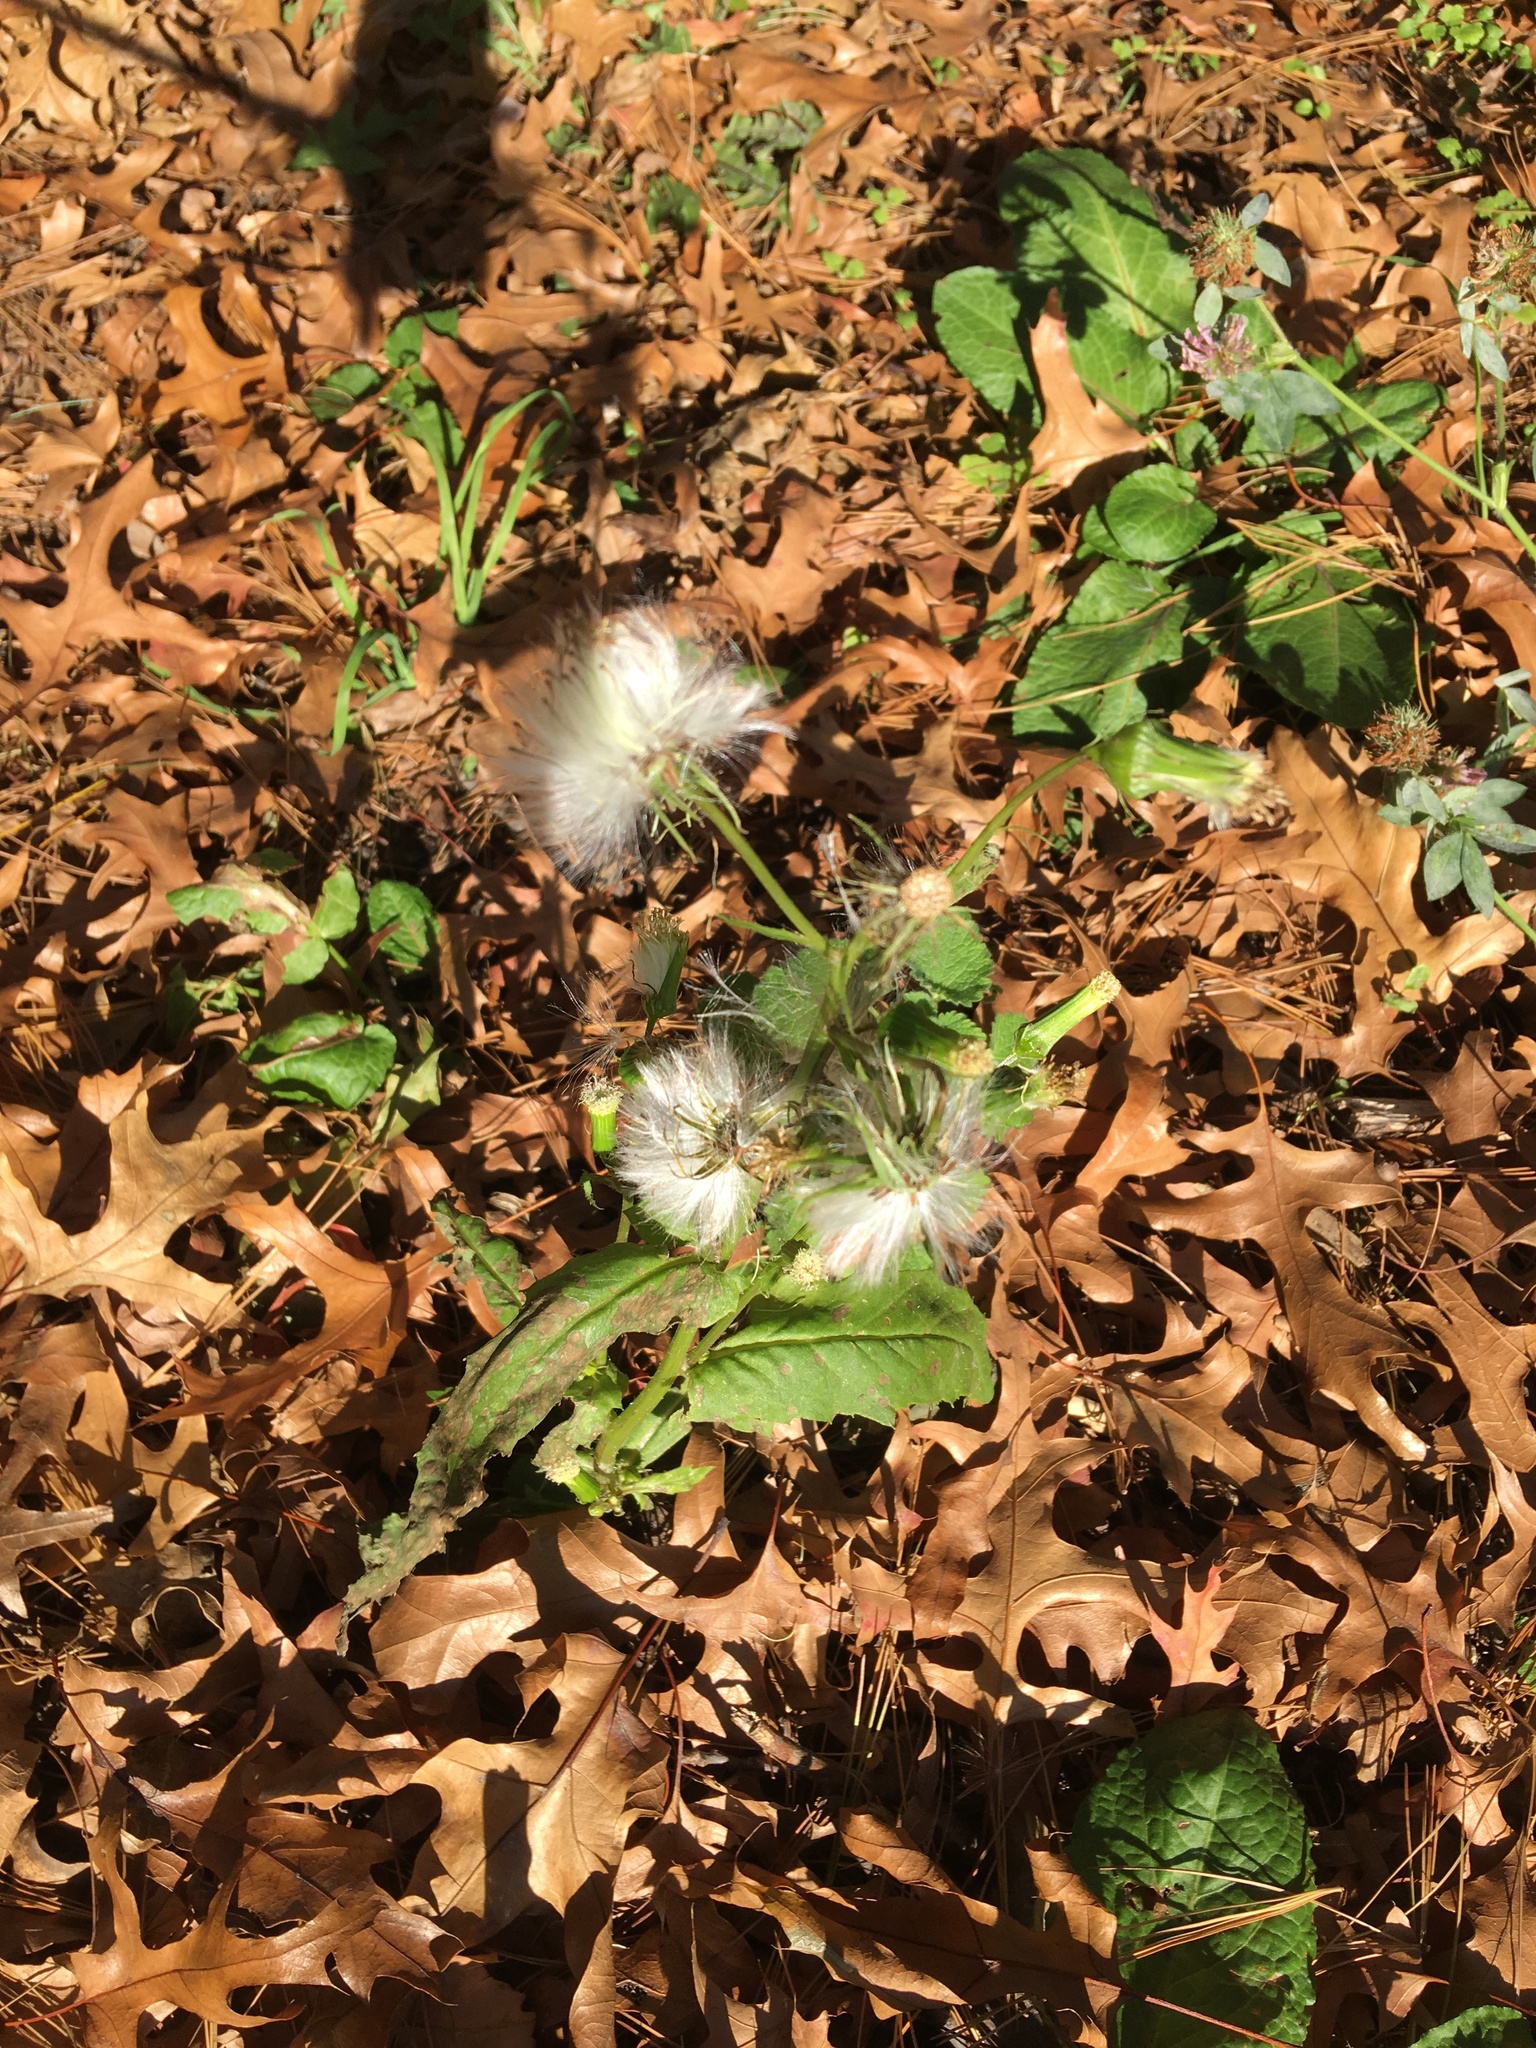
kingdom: Plantae
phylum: Tracheophyta
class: Magnoliopsida
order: Asterales
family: Asteraceae
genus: Erechtites
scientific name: Erechtites hieraciifolius
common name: American burnweed
